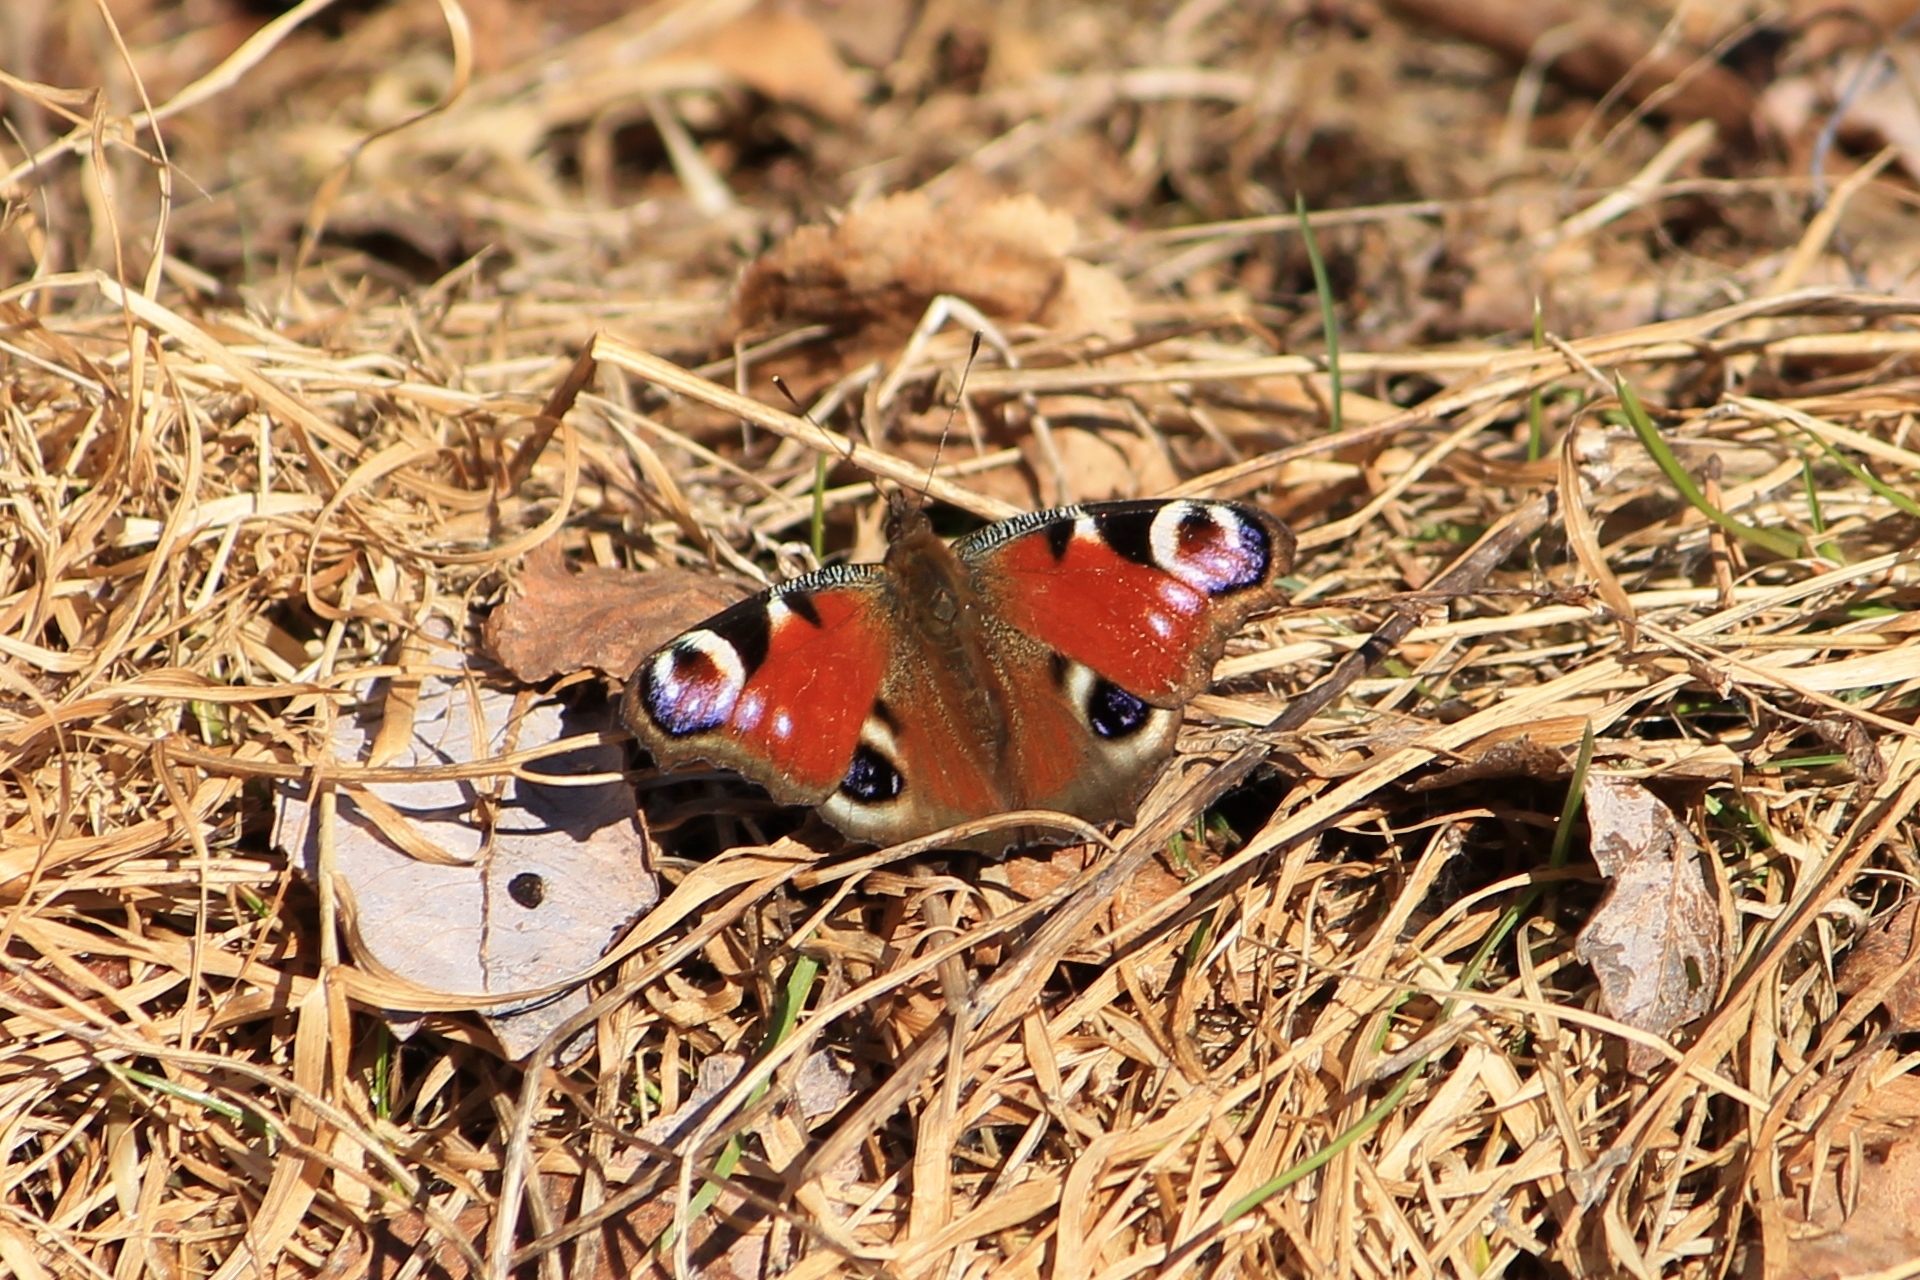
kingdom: Animalia
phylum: Arthropoda
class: Insecta
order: Lepidoptera
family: Nymphalidae
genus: Aglais
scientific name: Aglais io
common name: Peacock
